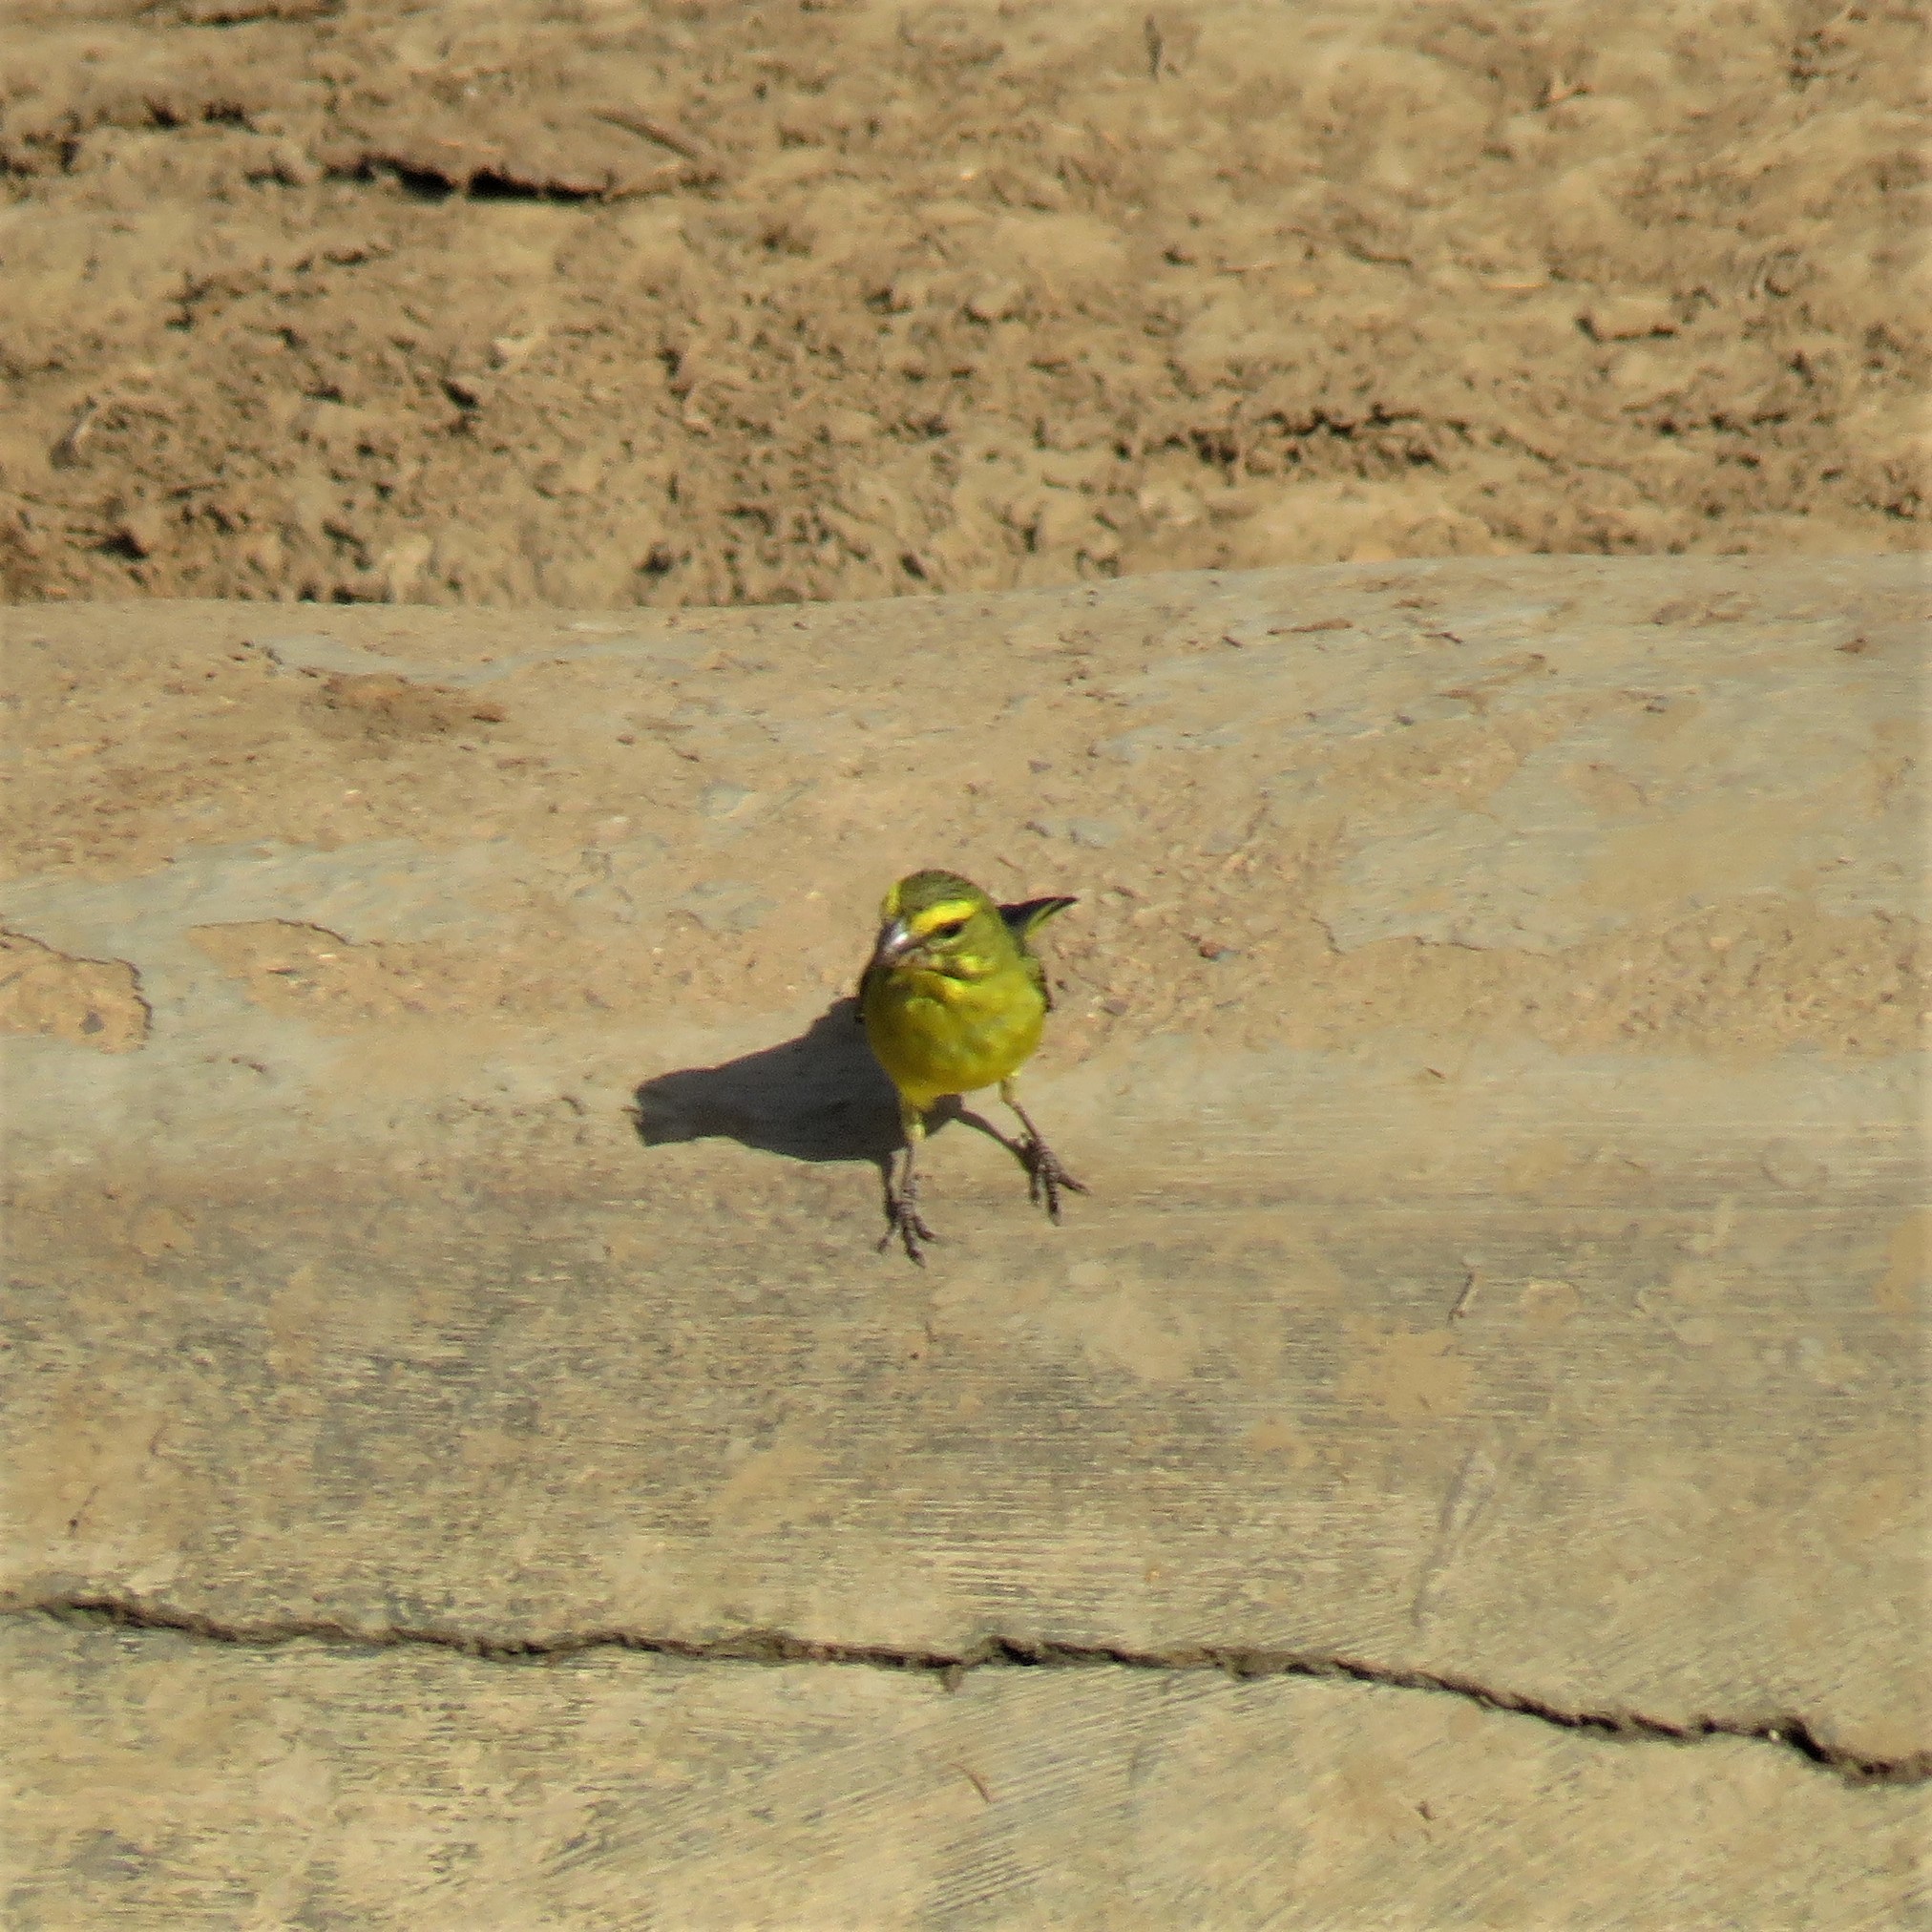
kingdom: Animalia
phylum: Chordata
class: Aves
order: Passeriformes
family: Fringillidae
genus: Crithagra
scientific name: Crithagra sulphurata
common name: Brimstone canary
